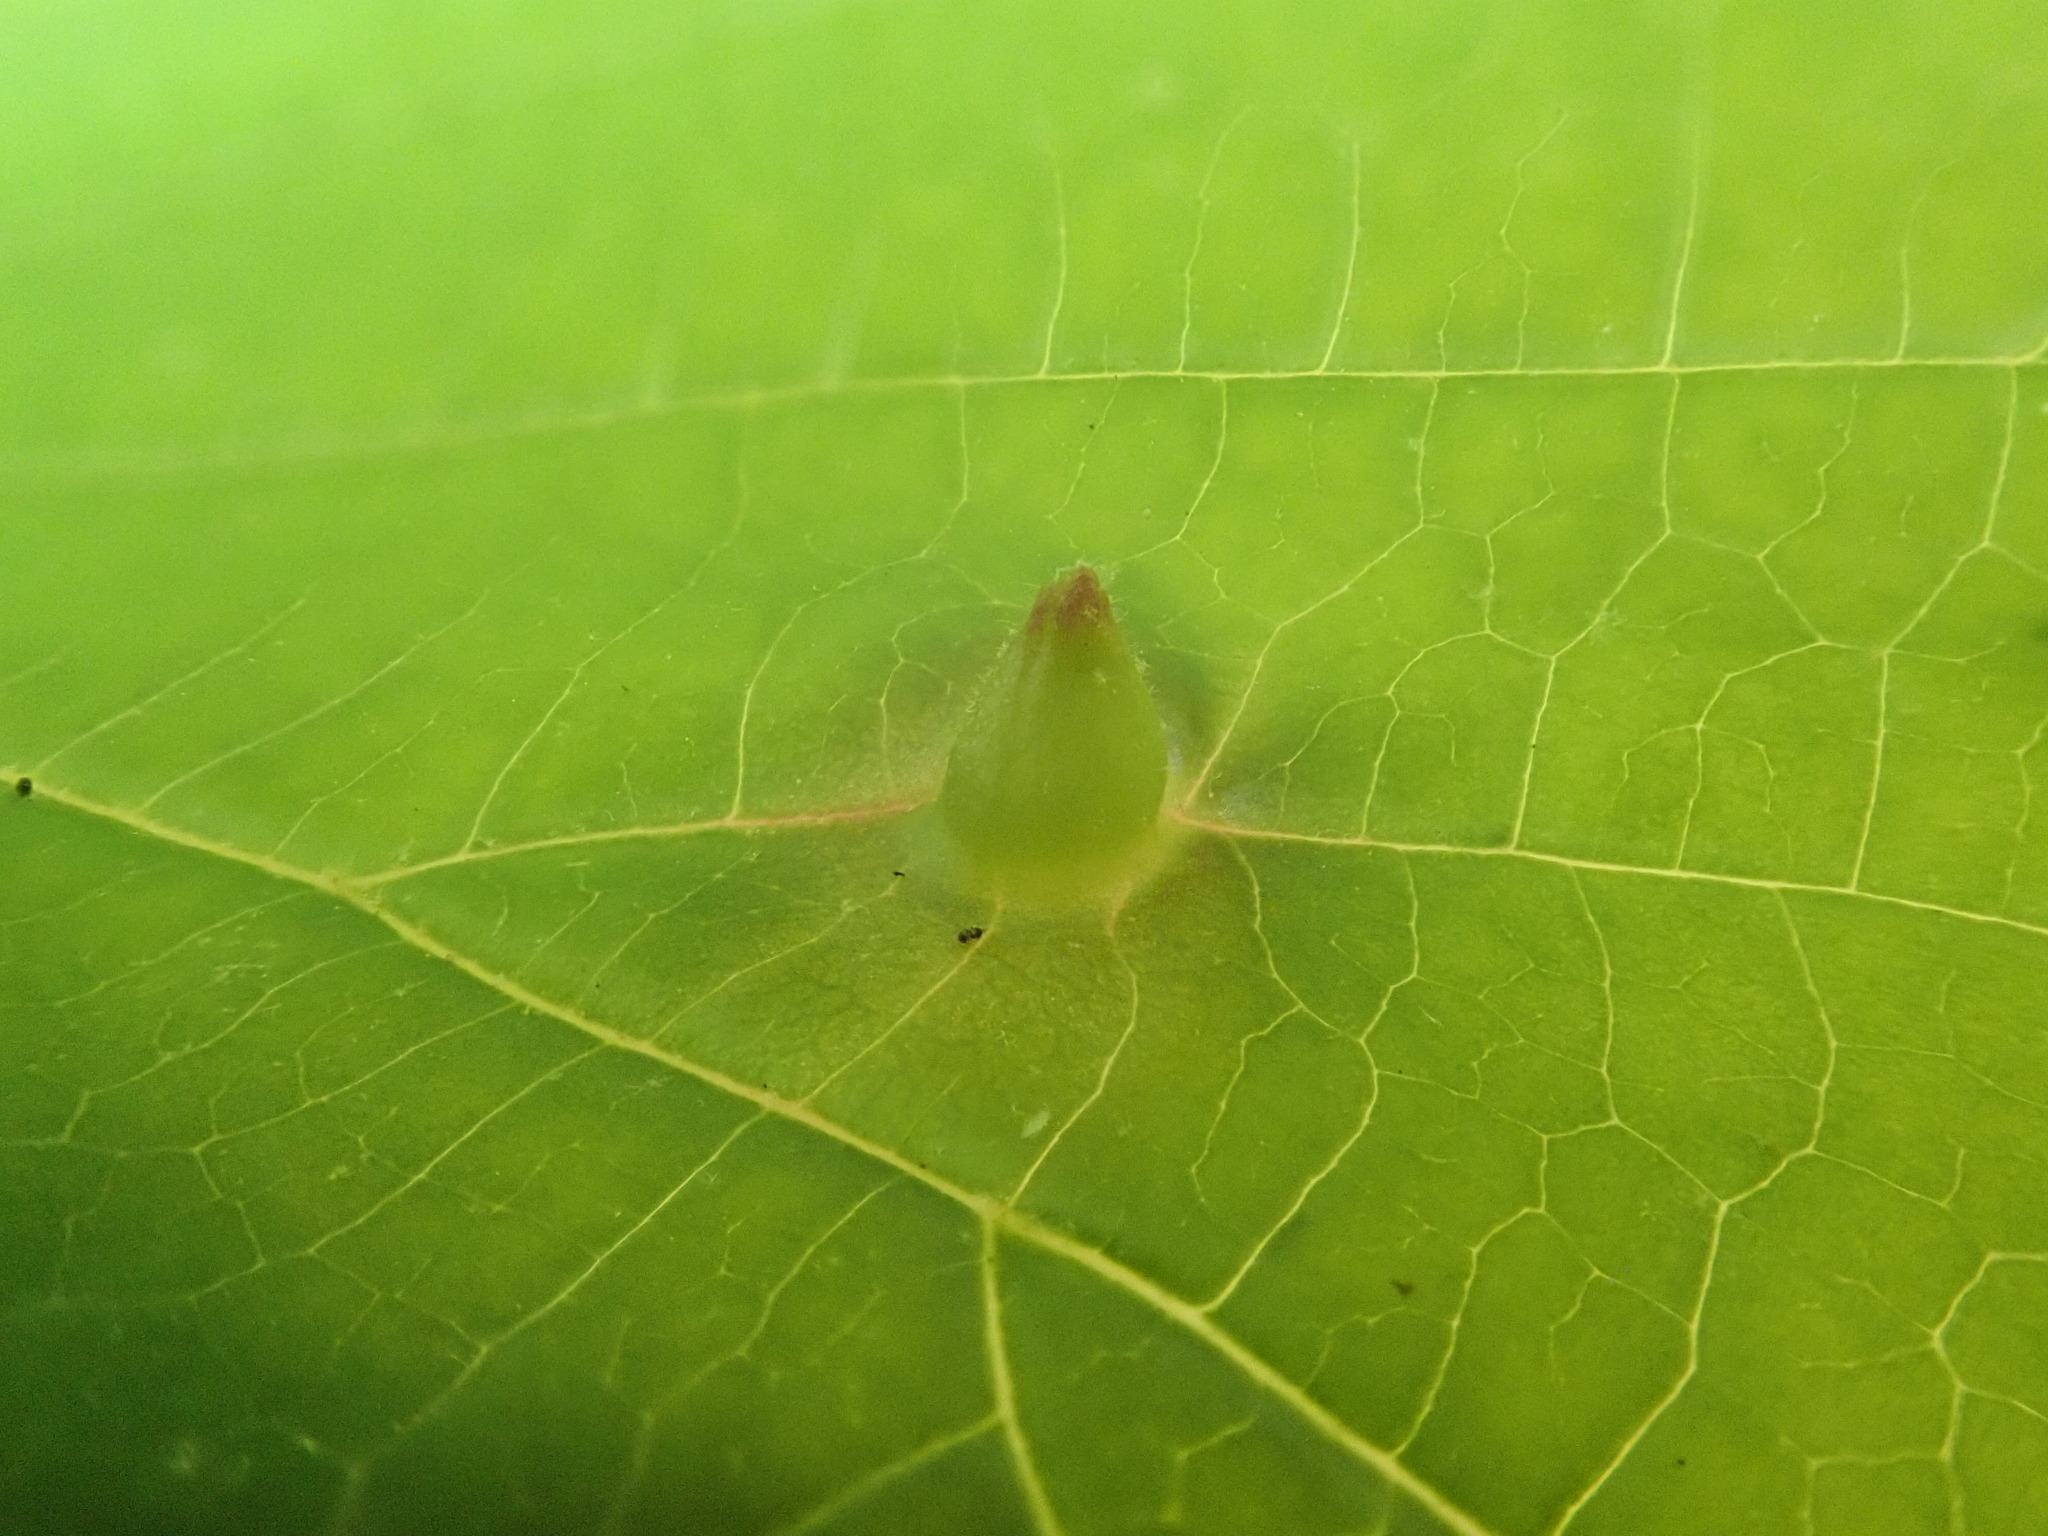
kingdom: Animalia
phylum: Arthropoda
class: Insecta
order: Hemiptera
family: Aphididae
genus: Hormaphis
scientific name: Hormaphis hamamelidis
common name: Witch-hazel cone gall aphid
